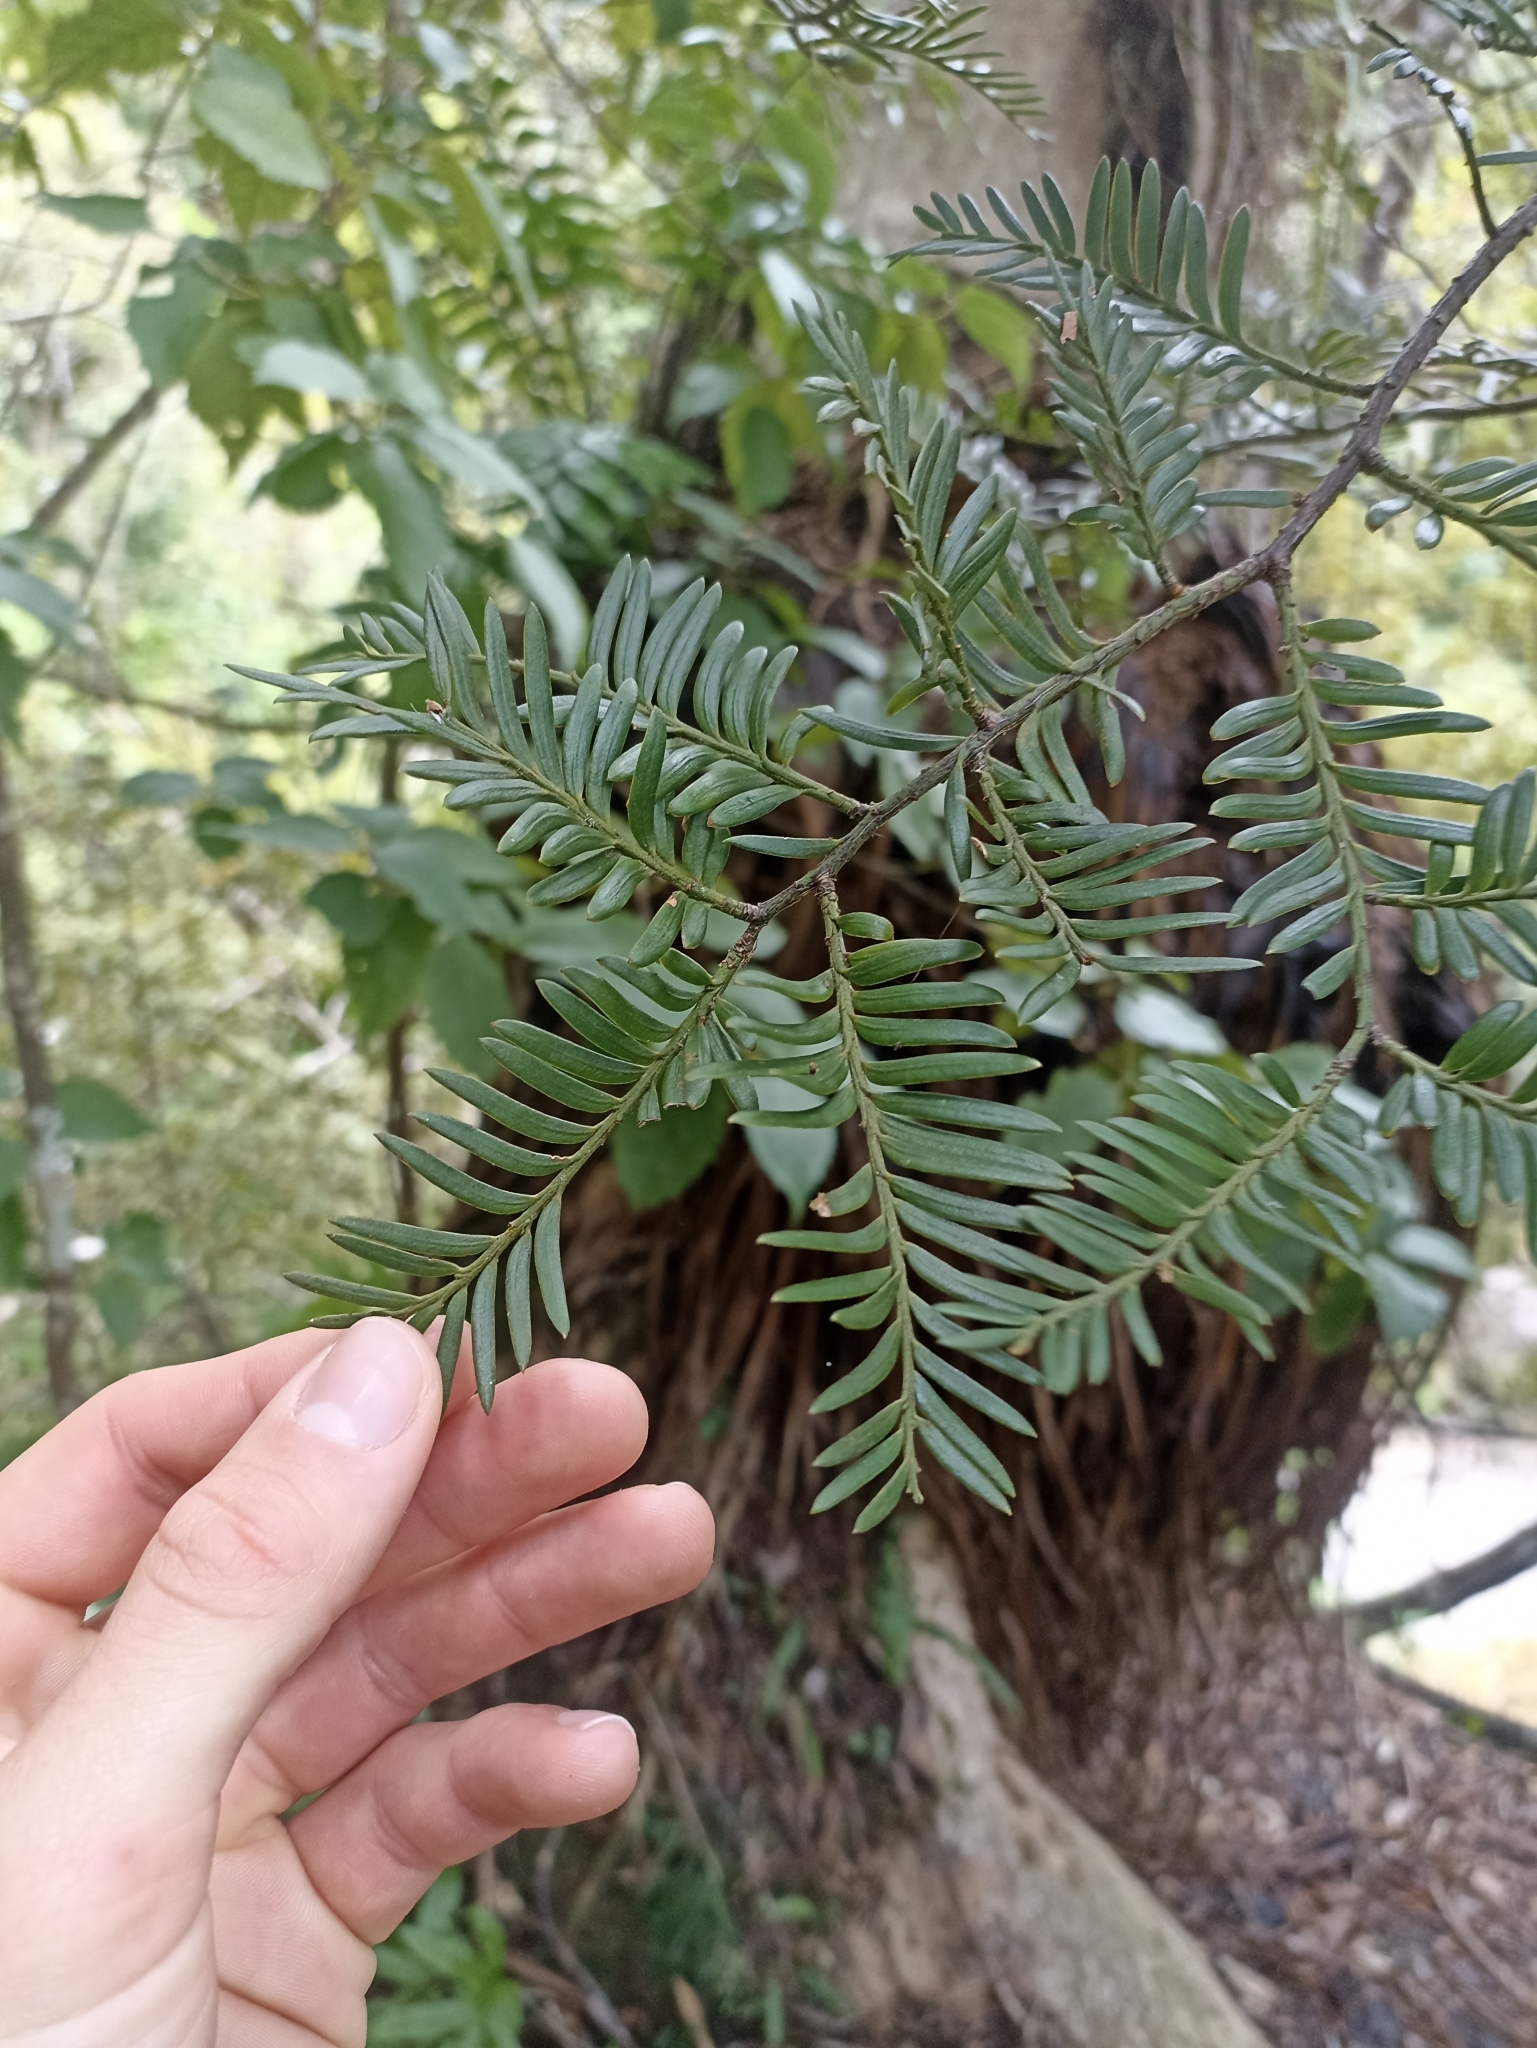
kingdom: Plantae
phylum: Tracheophyta
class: Pinopsida
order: Pinales
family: Podocarpaceae
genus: Prumnopitys
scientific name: Prumnopitys ferruginea
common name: Brown pine
